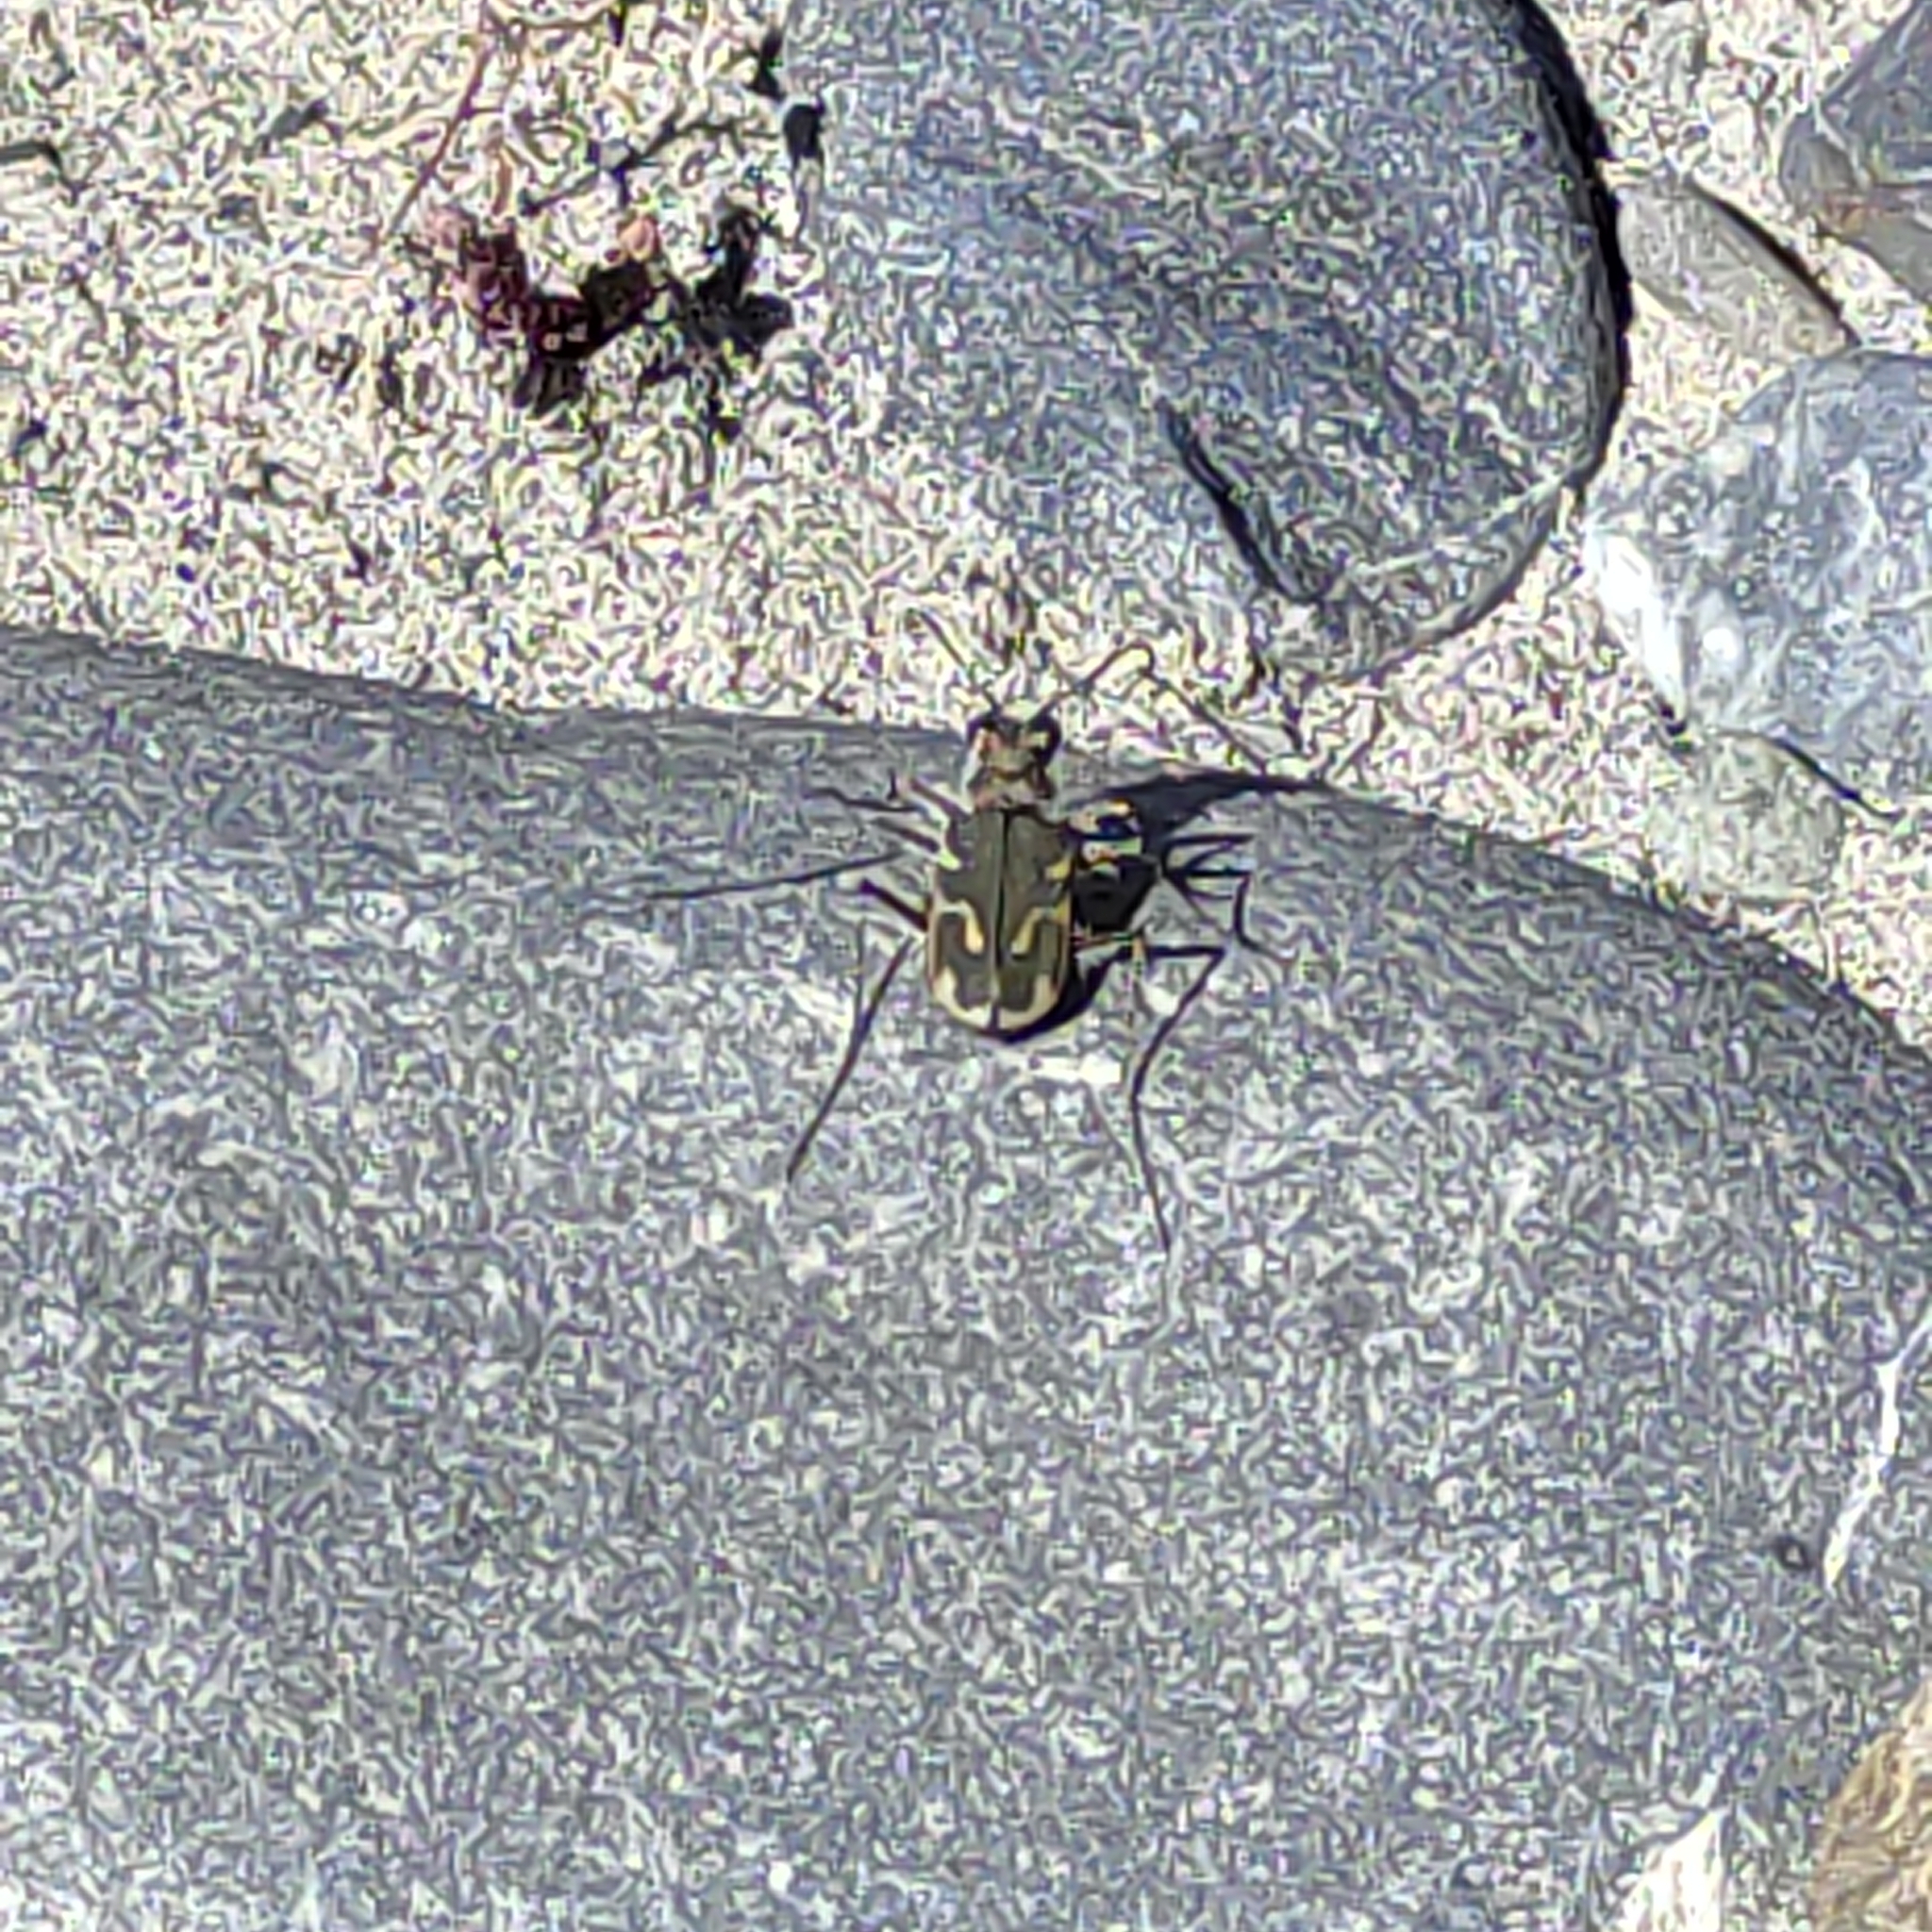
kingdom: Animalia
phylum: Arthropoda
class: Insecta
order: Coleoptera
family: Carabidae
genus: Zecicindela
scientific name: Zecicindela feredayi
